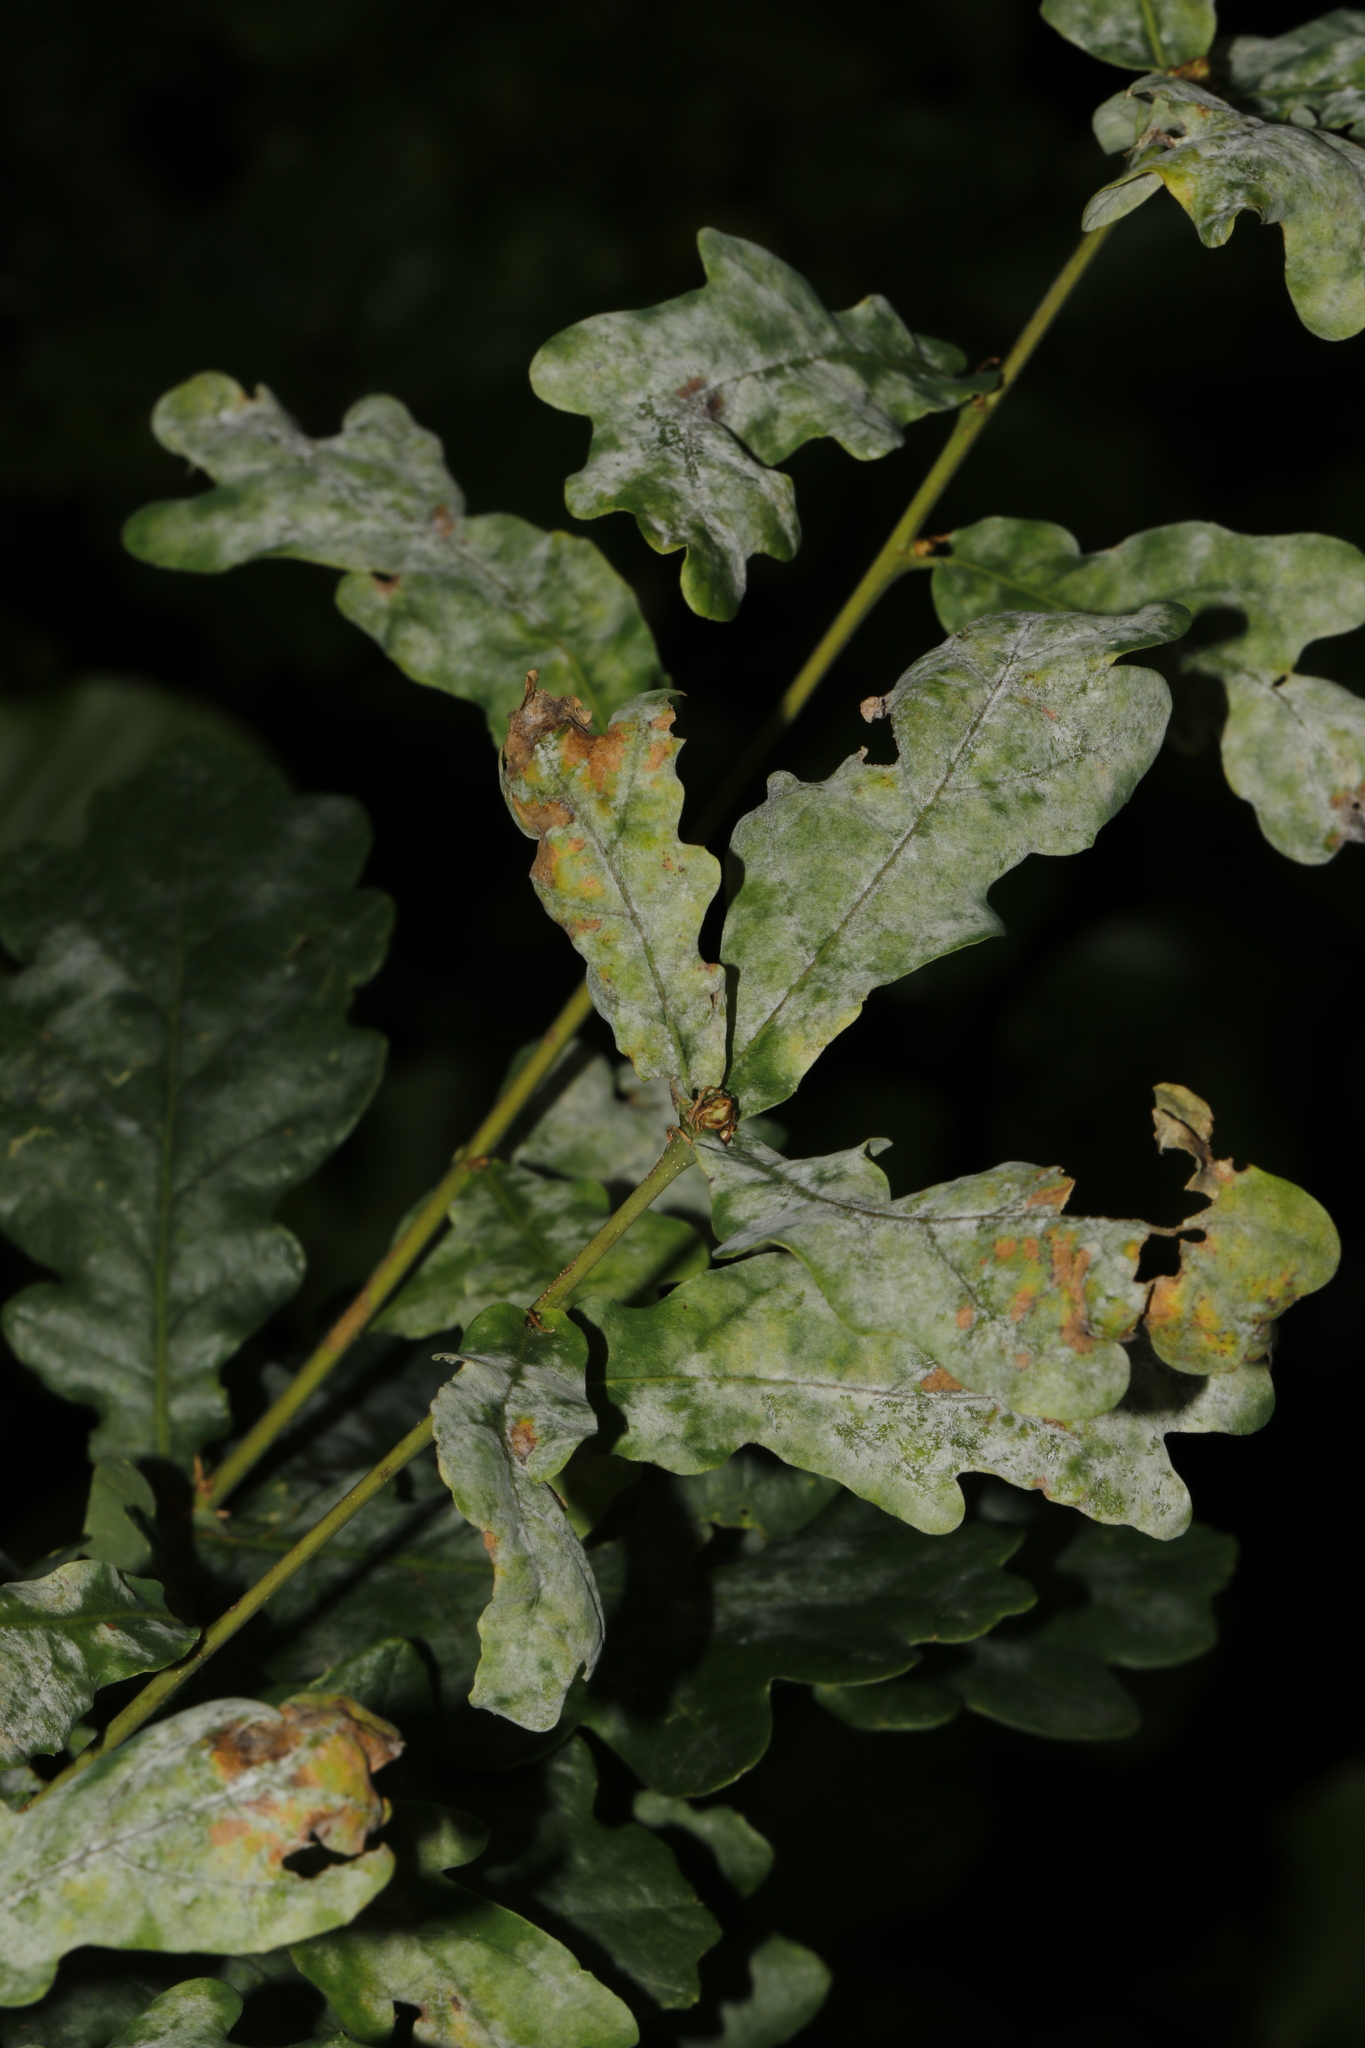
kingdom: Fungi
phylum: Ascomycota
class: Leotiomycetes
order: Helotiales
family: Erysiphaceae
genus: Erysiphe
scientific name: Erysiphe alphitoides
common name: Oak mildew
